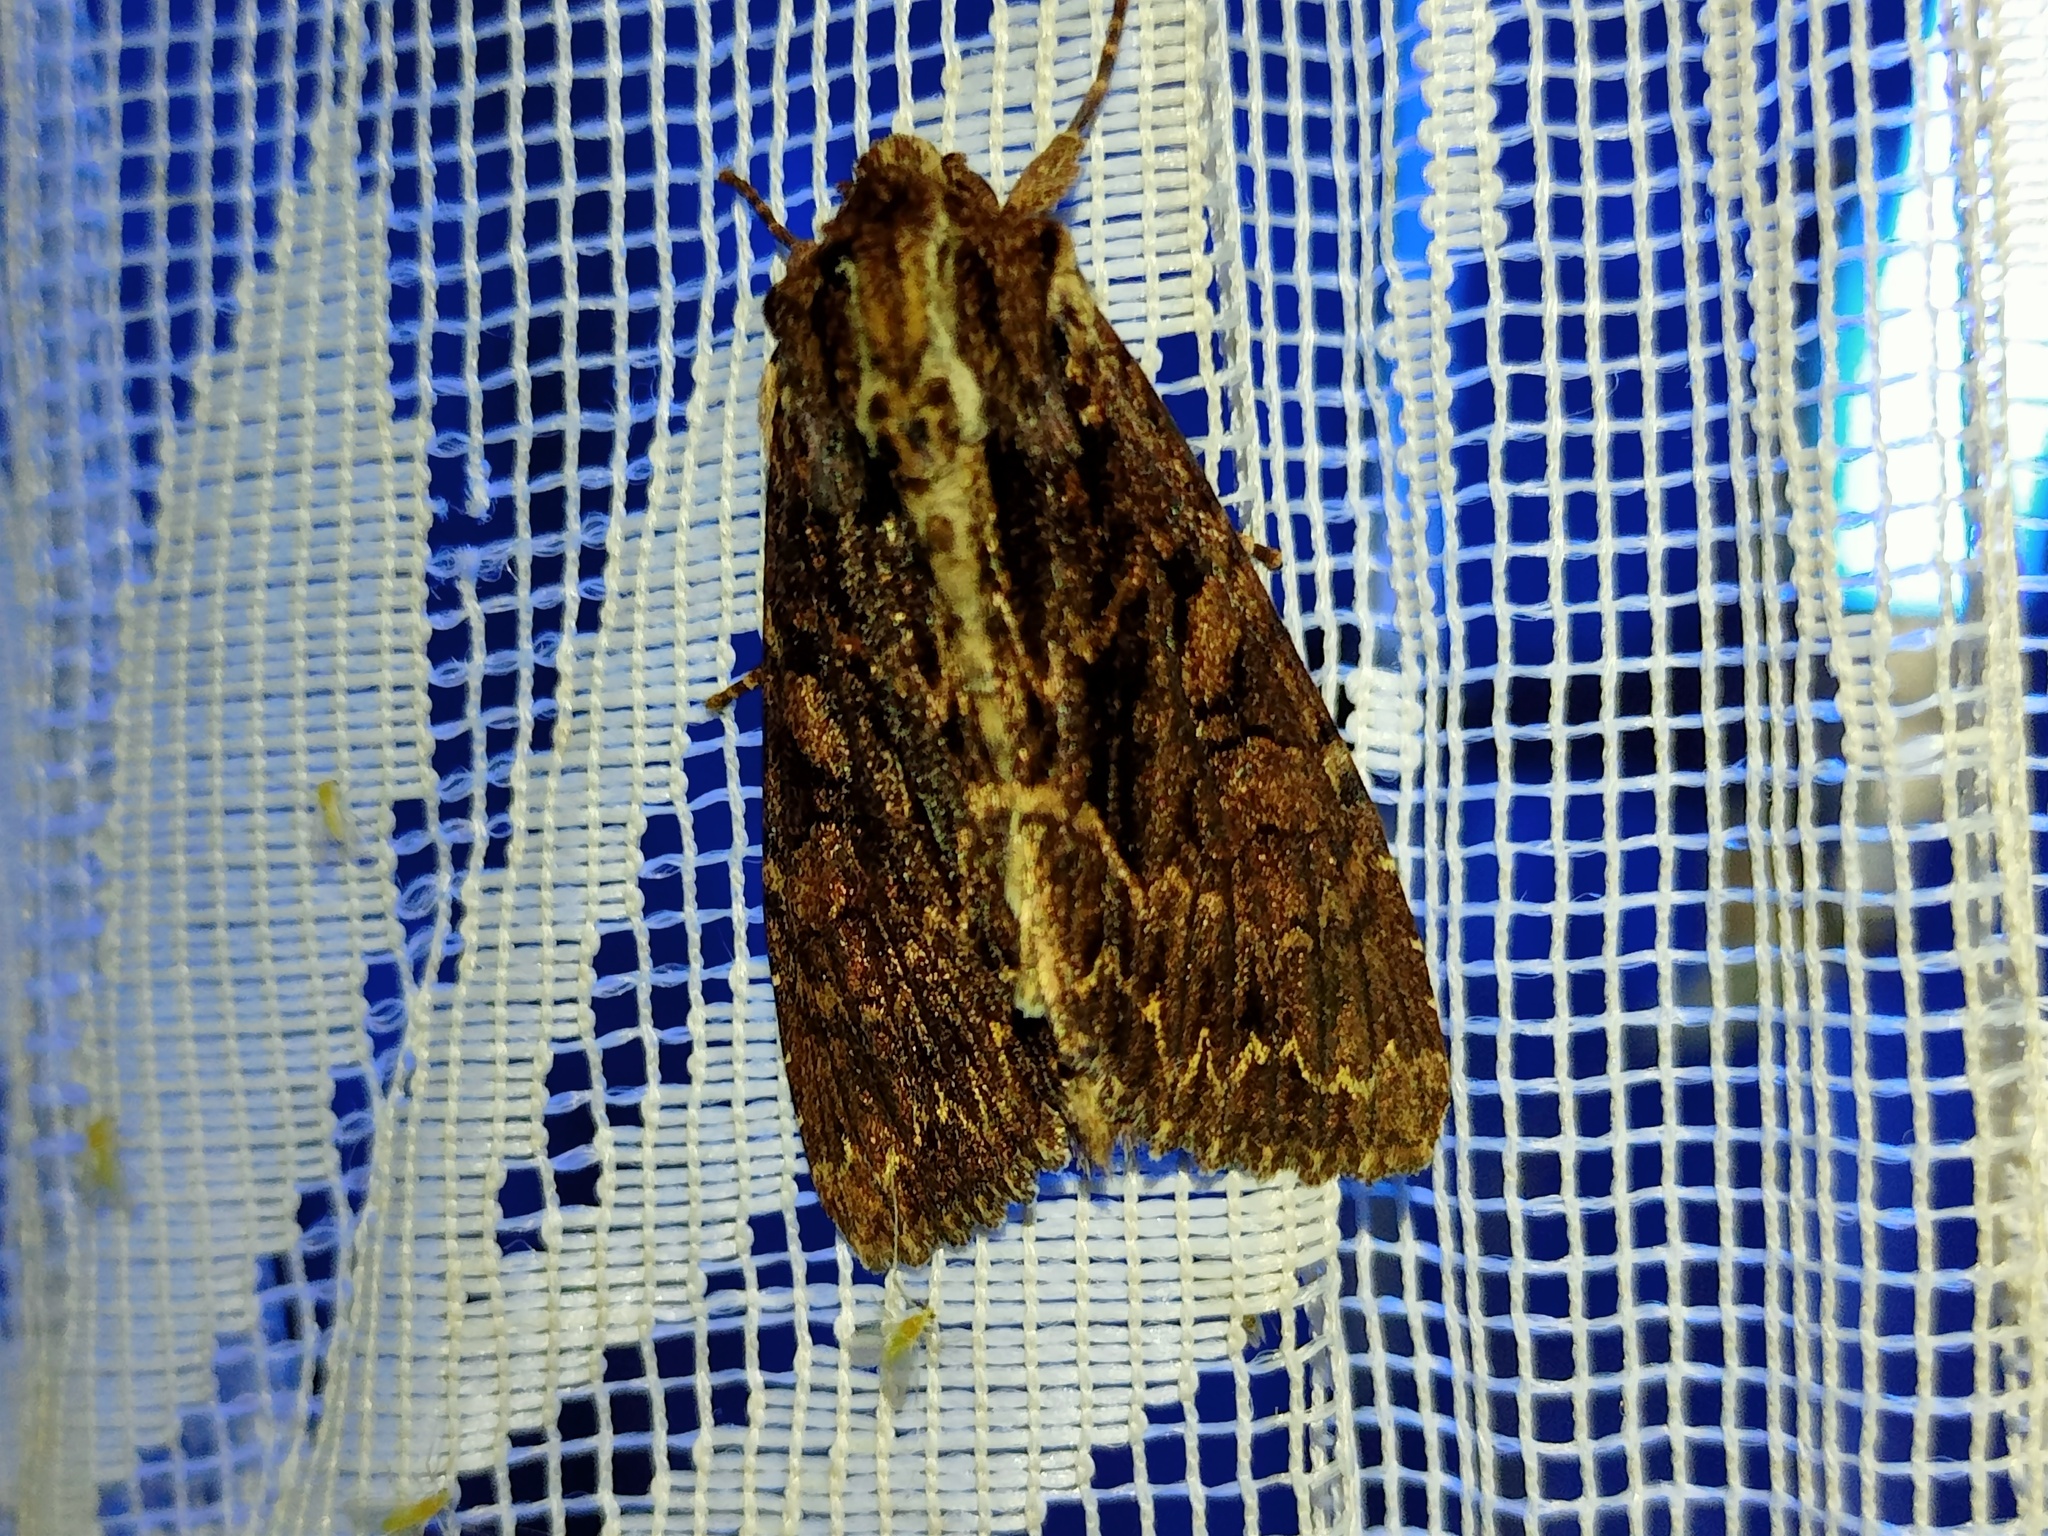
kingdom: Animalia
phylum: Arthropoda
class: Insecta
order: Lepidoptera
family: Noctuidae
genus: Apamea
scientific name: Apamea monoglypha
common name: Dark arches
